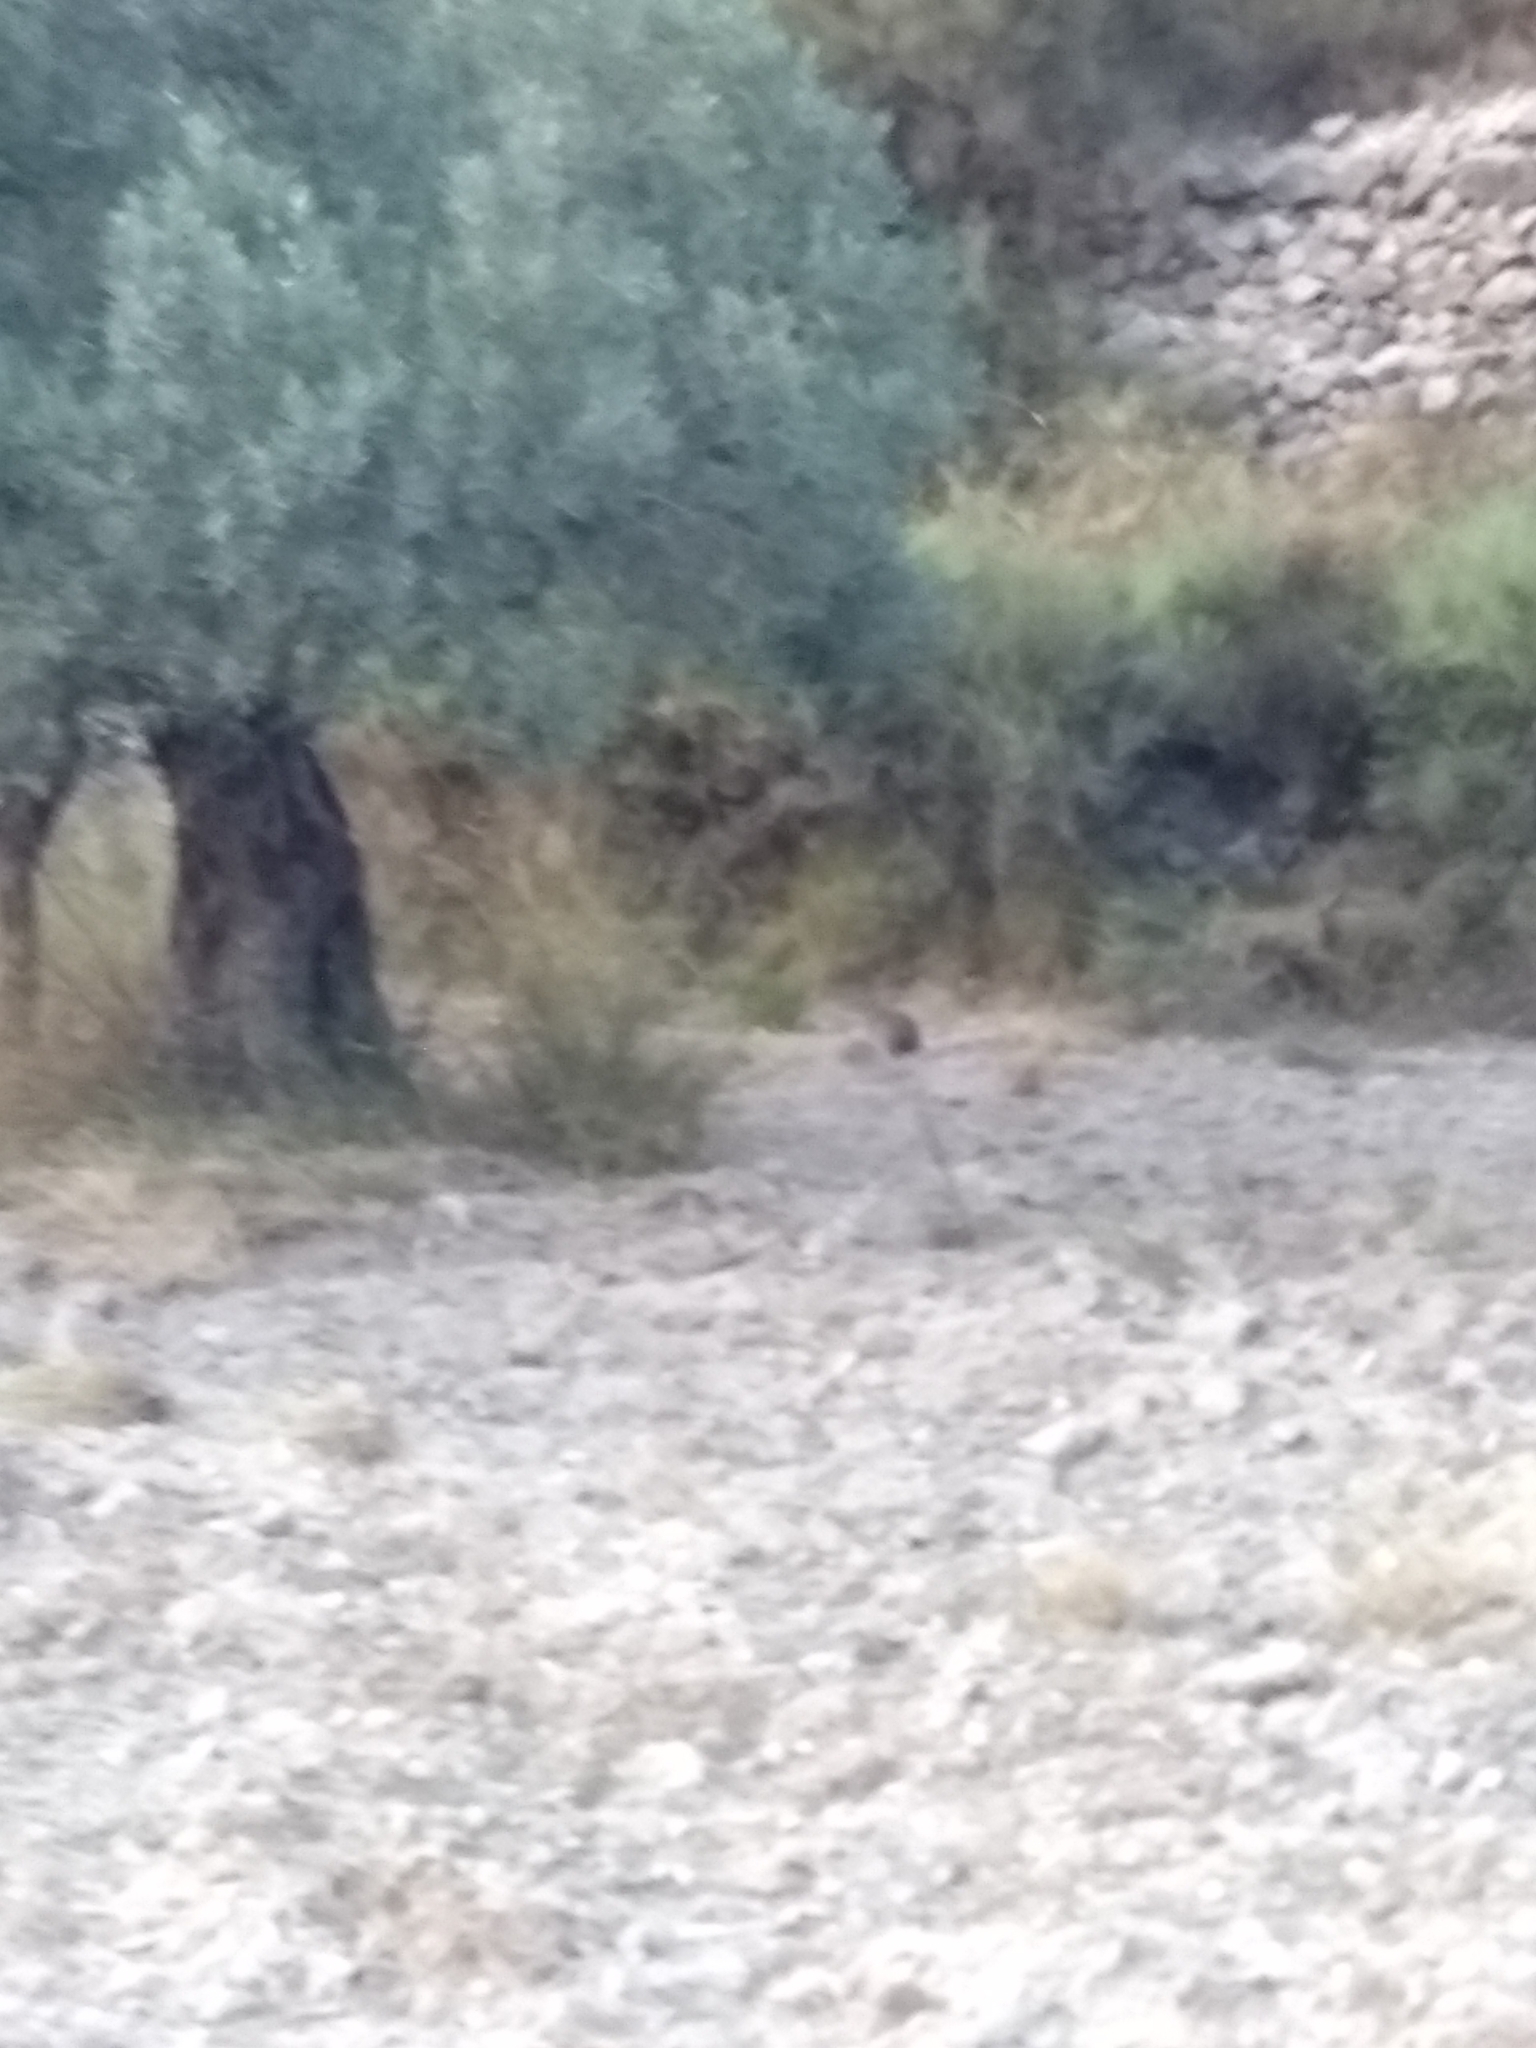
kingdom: Animalia
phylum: Chordata
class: Mammalia
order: Lagomorpha
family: Leporidae
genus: Oryctolagus
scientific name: Oryctolagus cuniculus
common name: European rabbit
